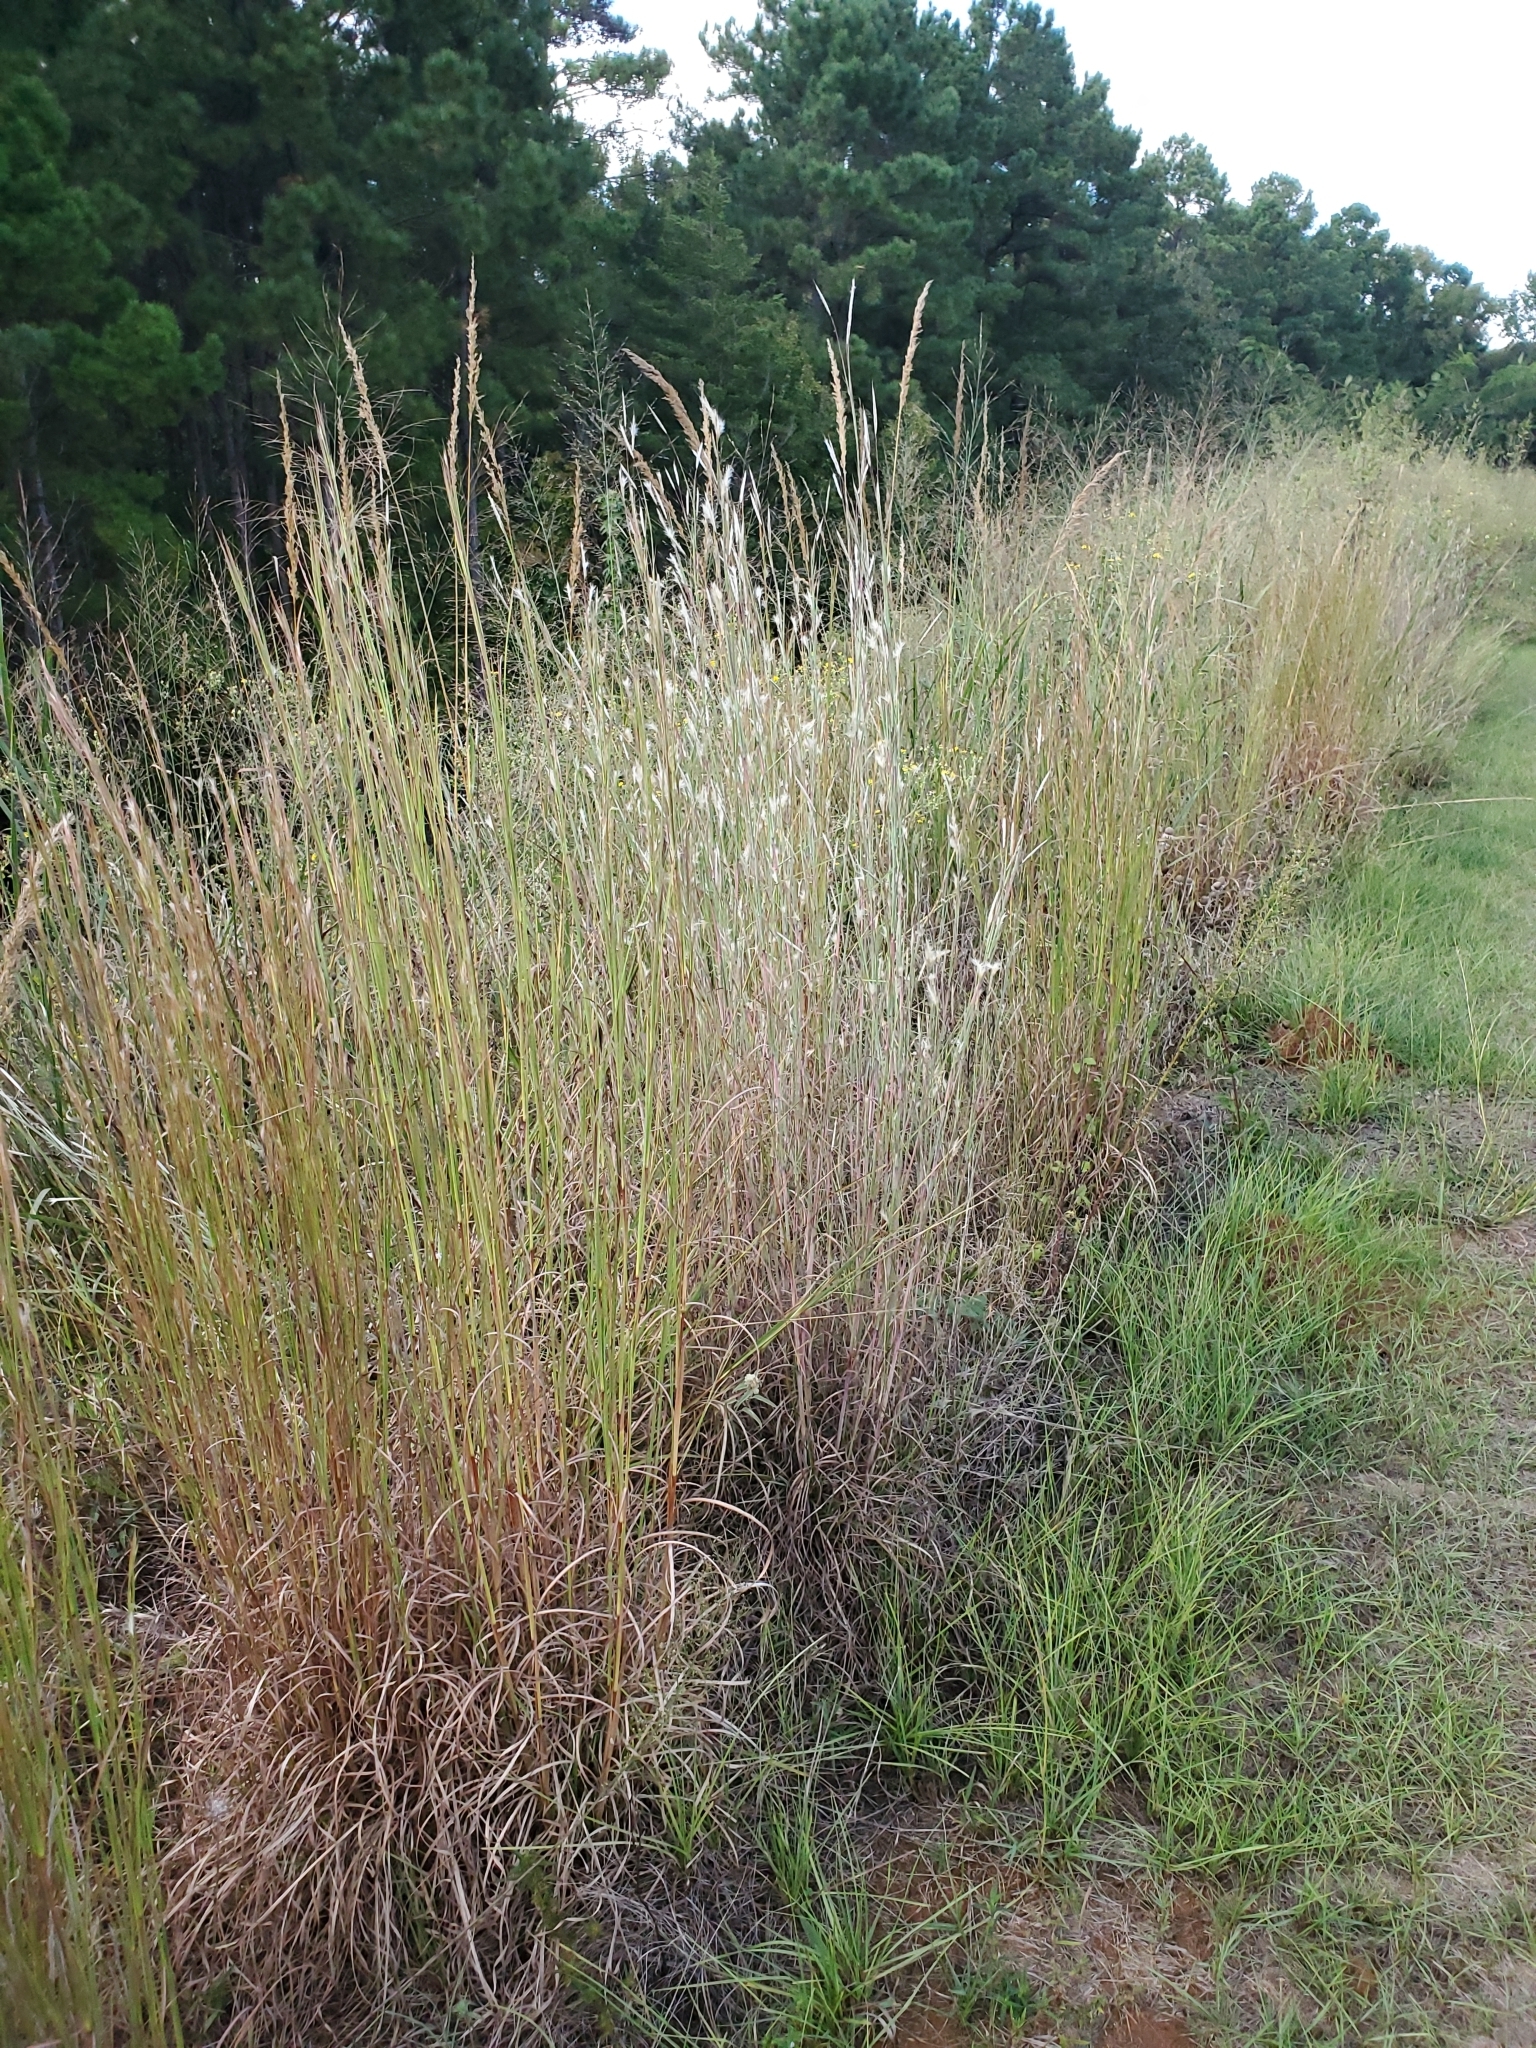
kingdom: Plantae
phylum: Tracheophyta
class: Liliopsida
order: Poales
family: Poaceae
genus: Andropogon
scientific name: Andropogon ternarius
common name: Split bluestem
